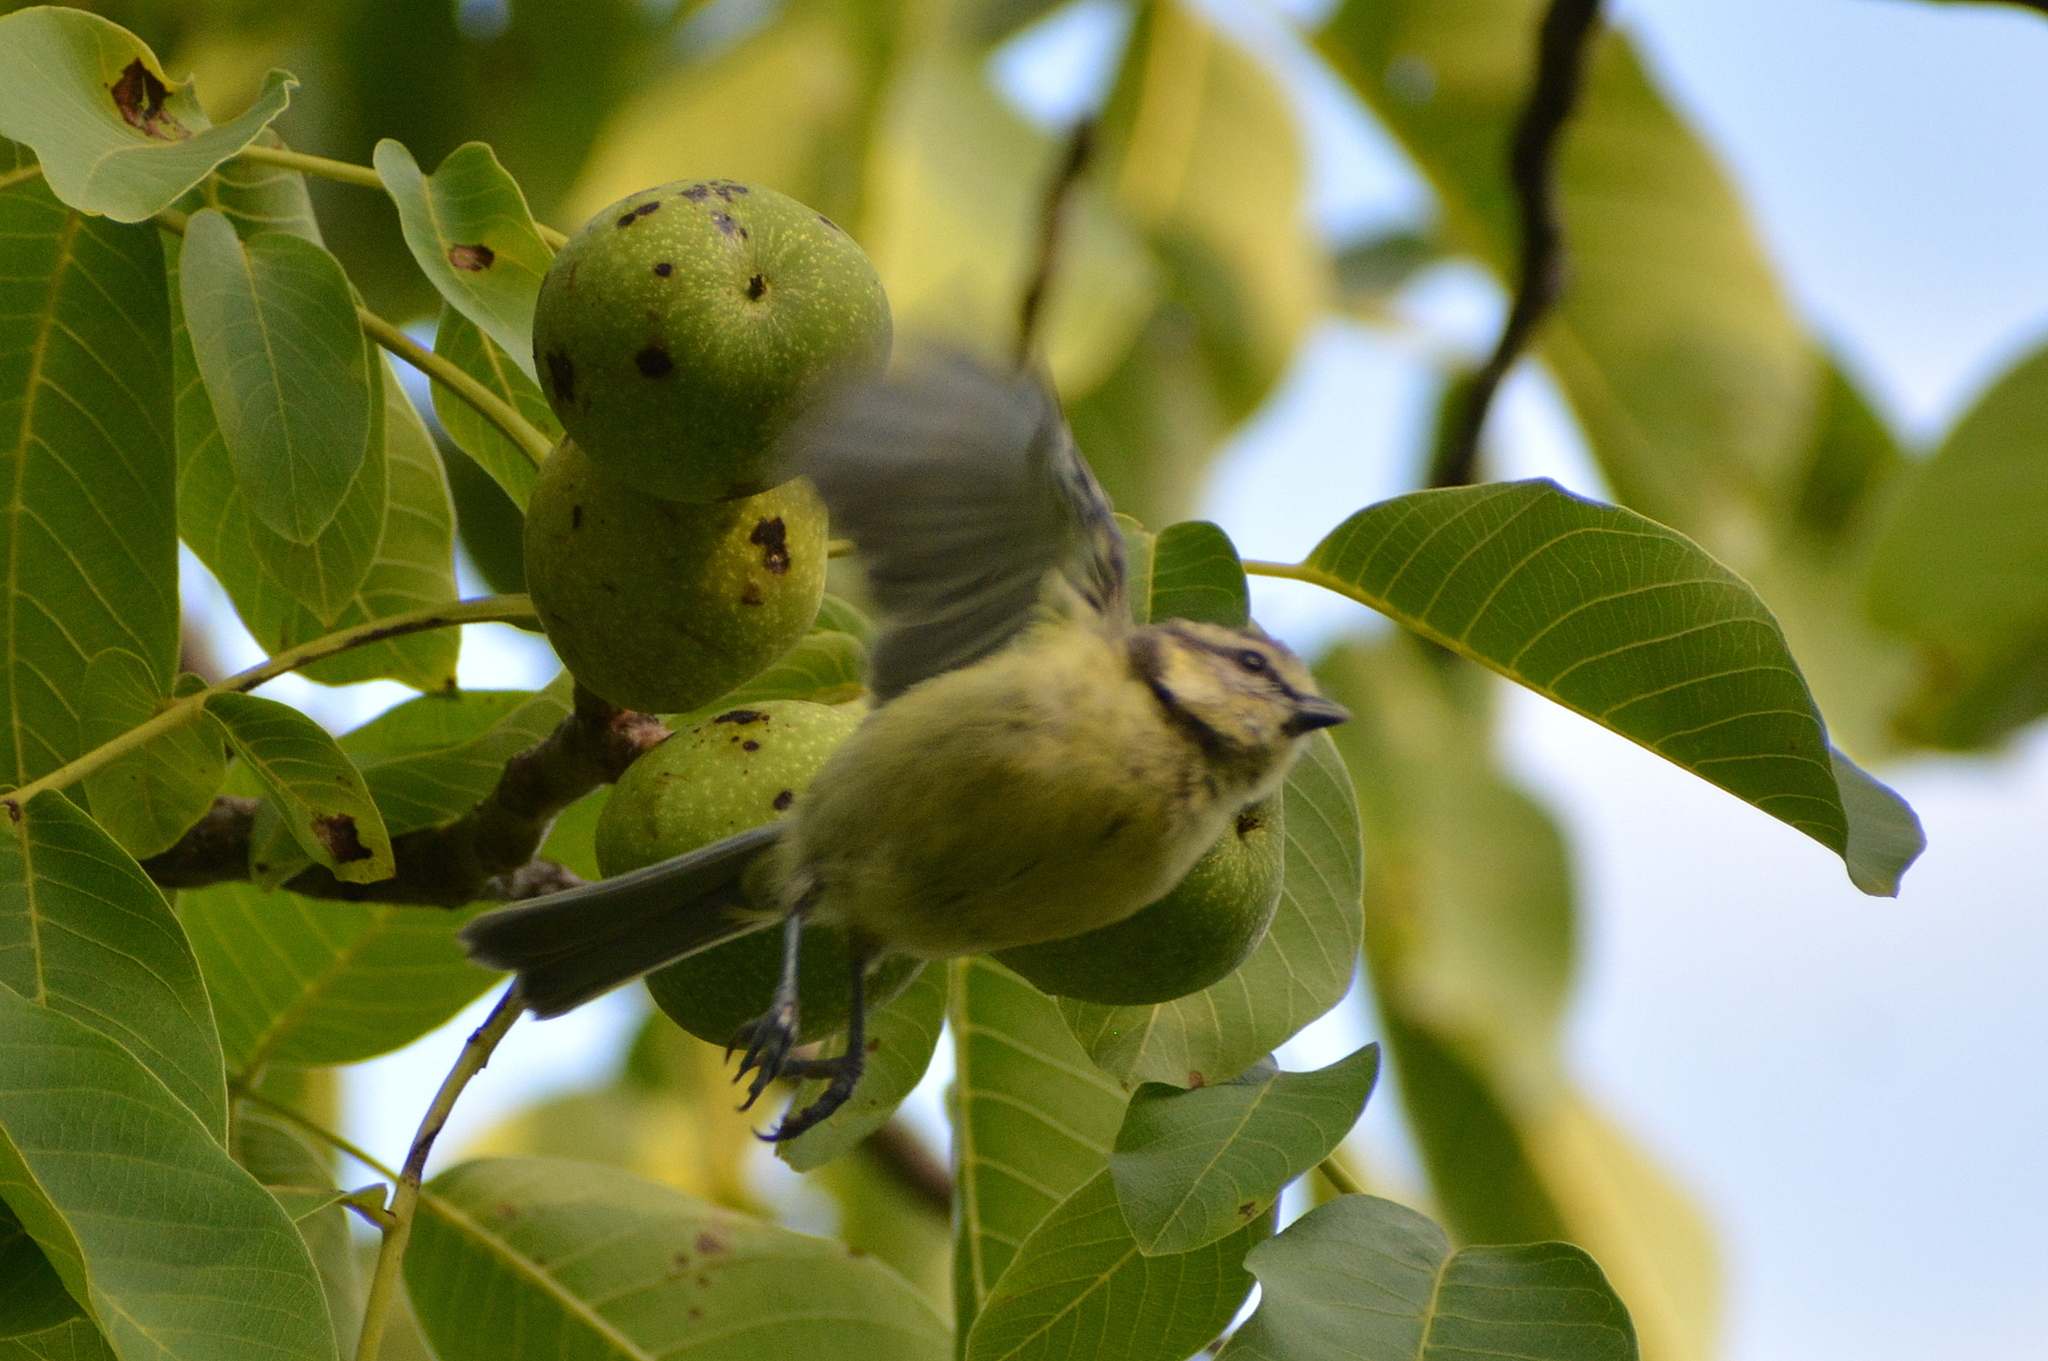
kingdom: Animalia
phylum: Chordata
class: Aves
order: Passeriformes
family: Paridae
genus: Cyanistes
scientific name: Cyanistes caeruleus
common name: Eurasian blue tit
